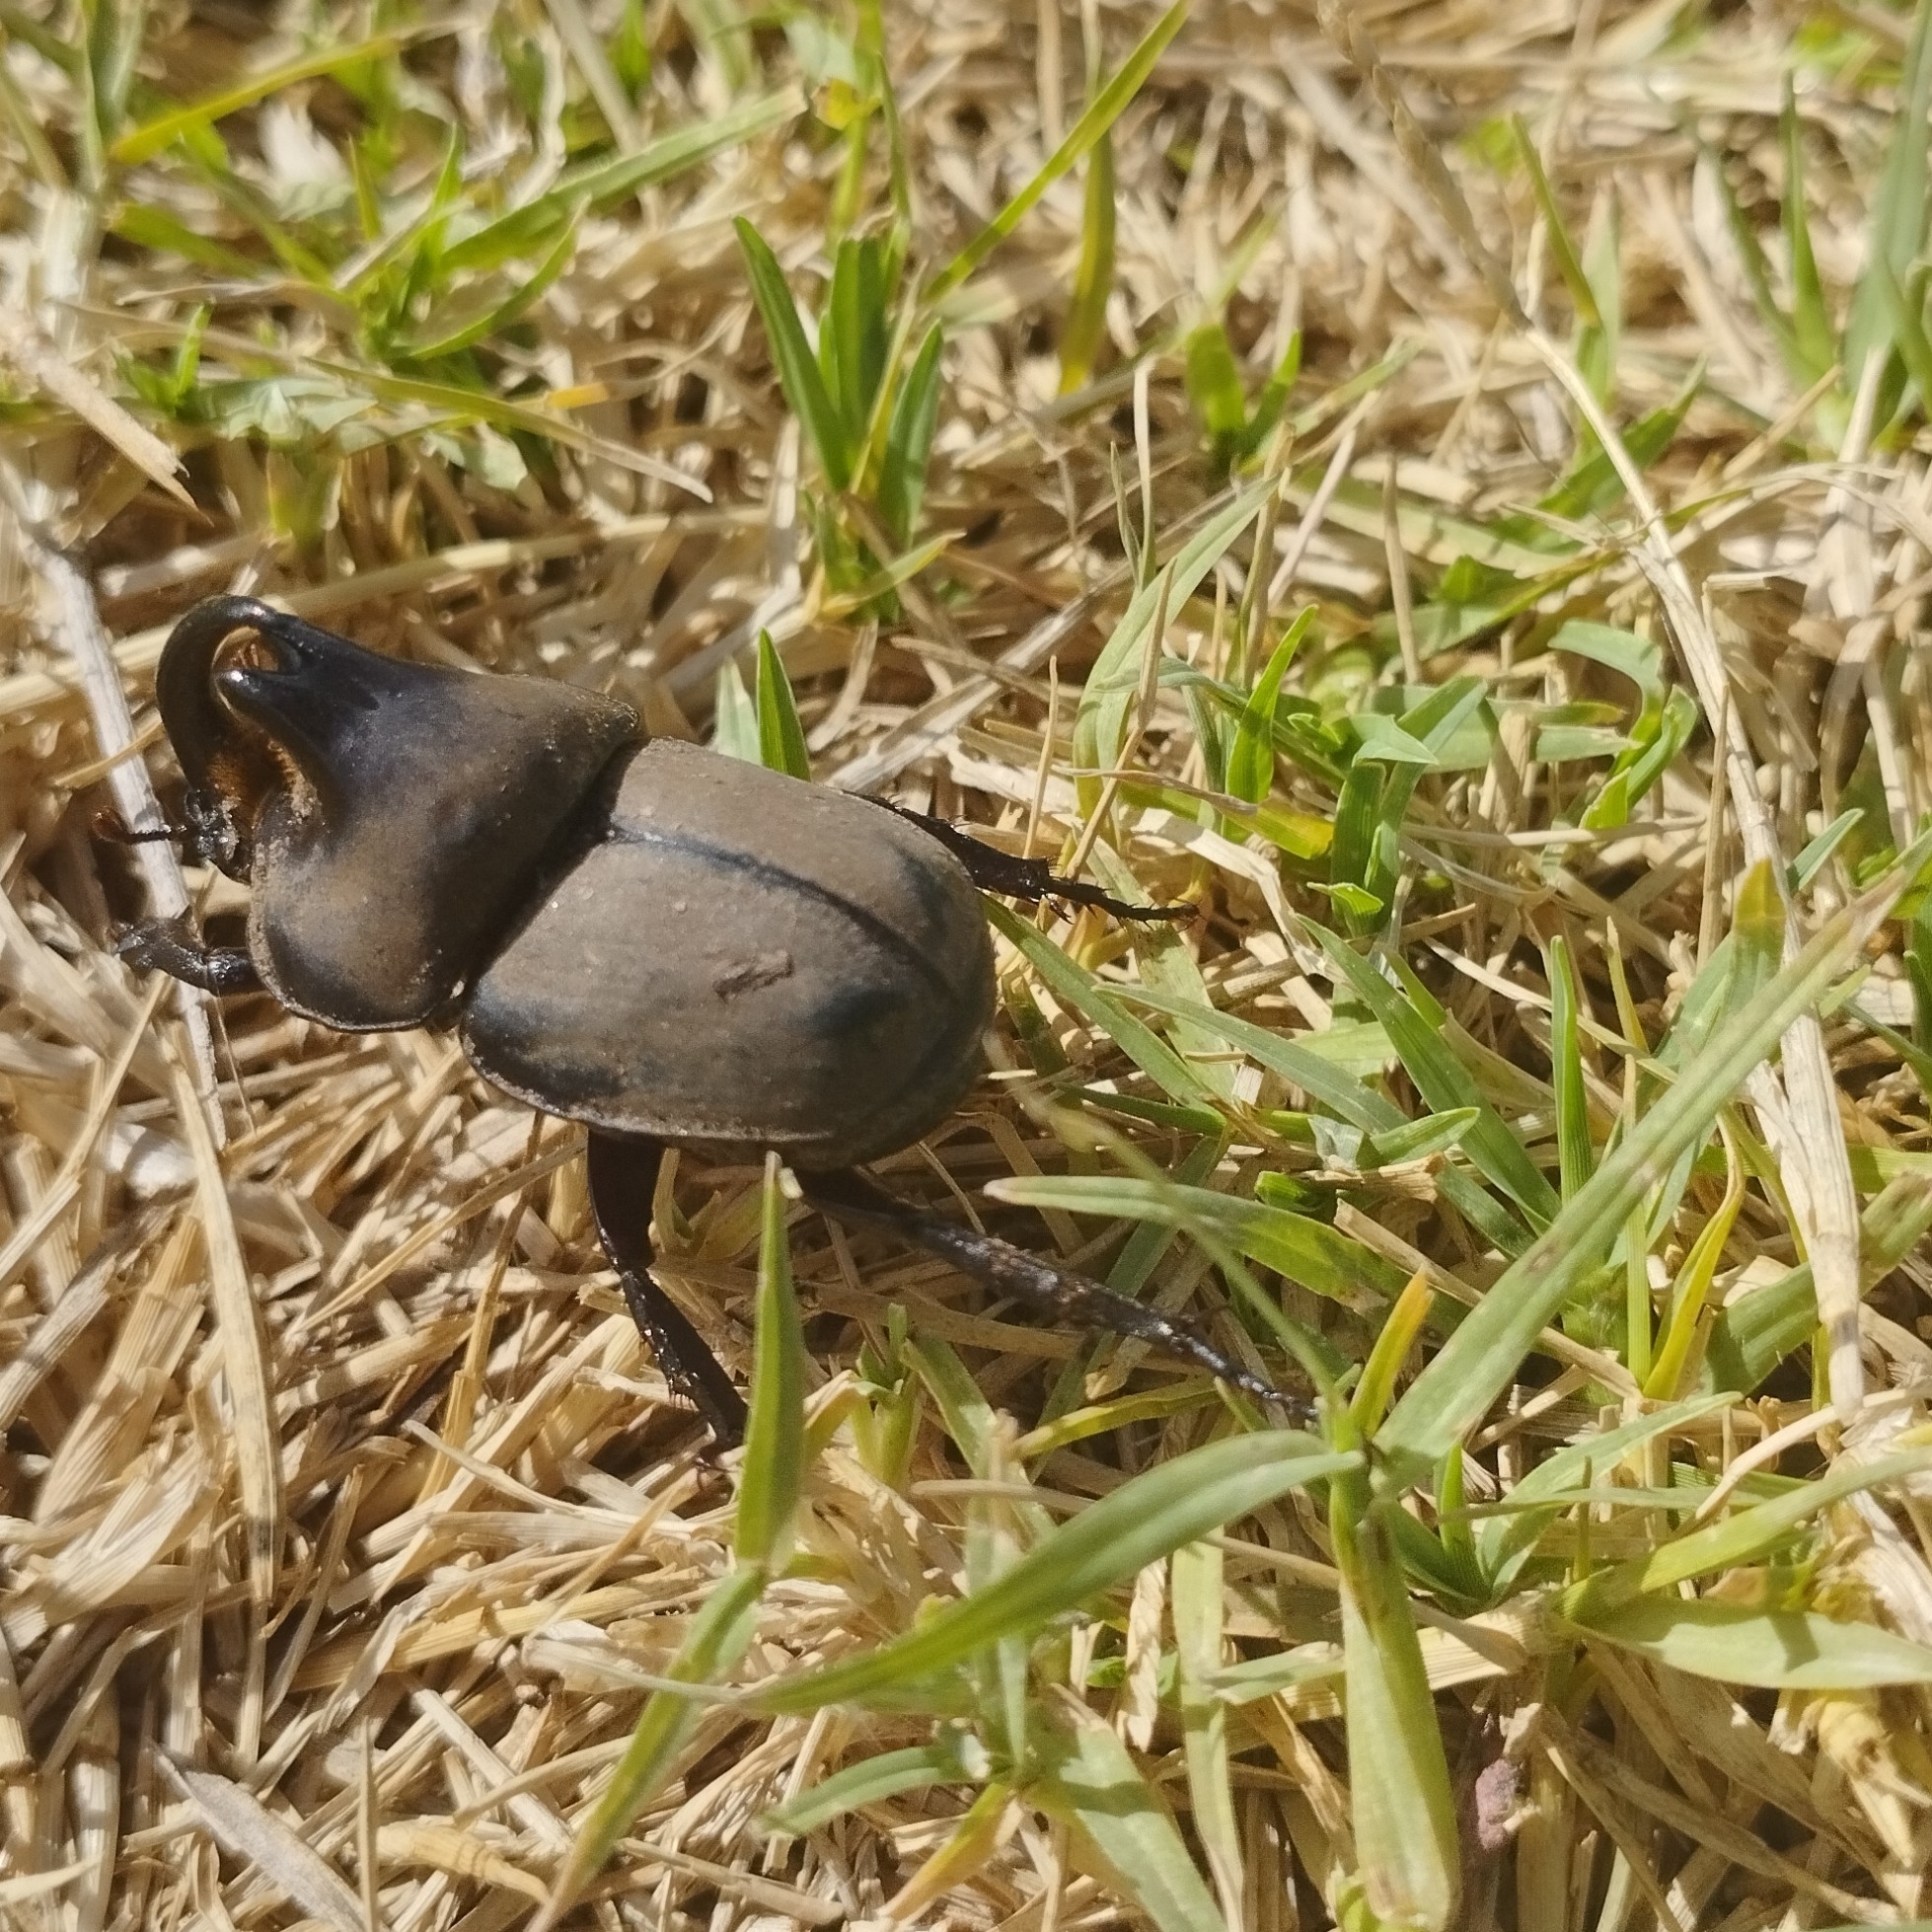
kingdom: Animalia
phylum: Arthropoda
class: Insecta
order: Coleoptera
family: Scarabaeidae
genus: Diloboderus
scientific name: Diloboderus abderus
